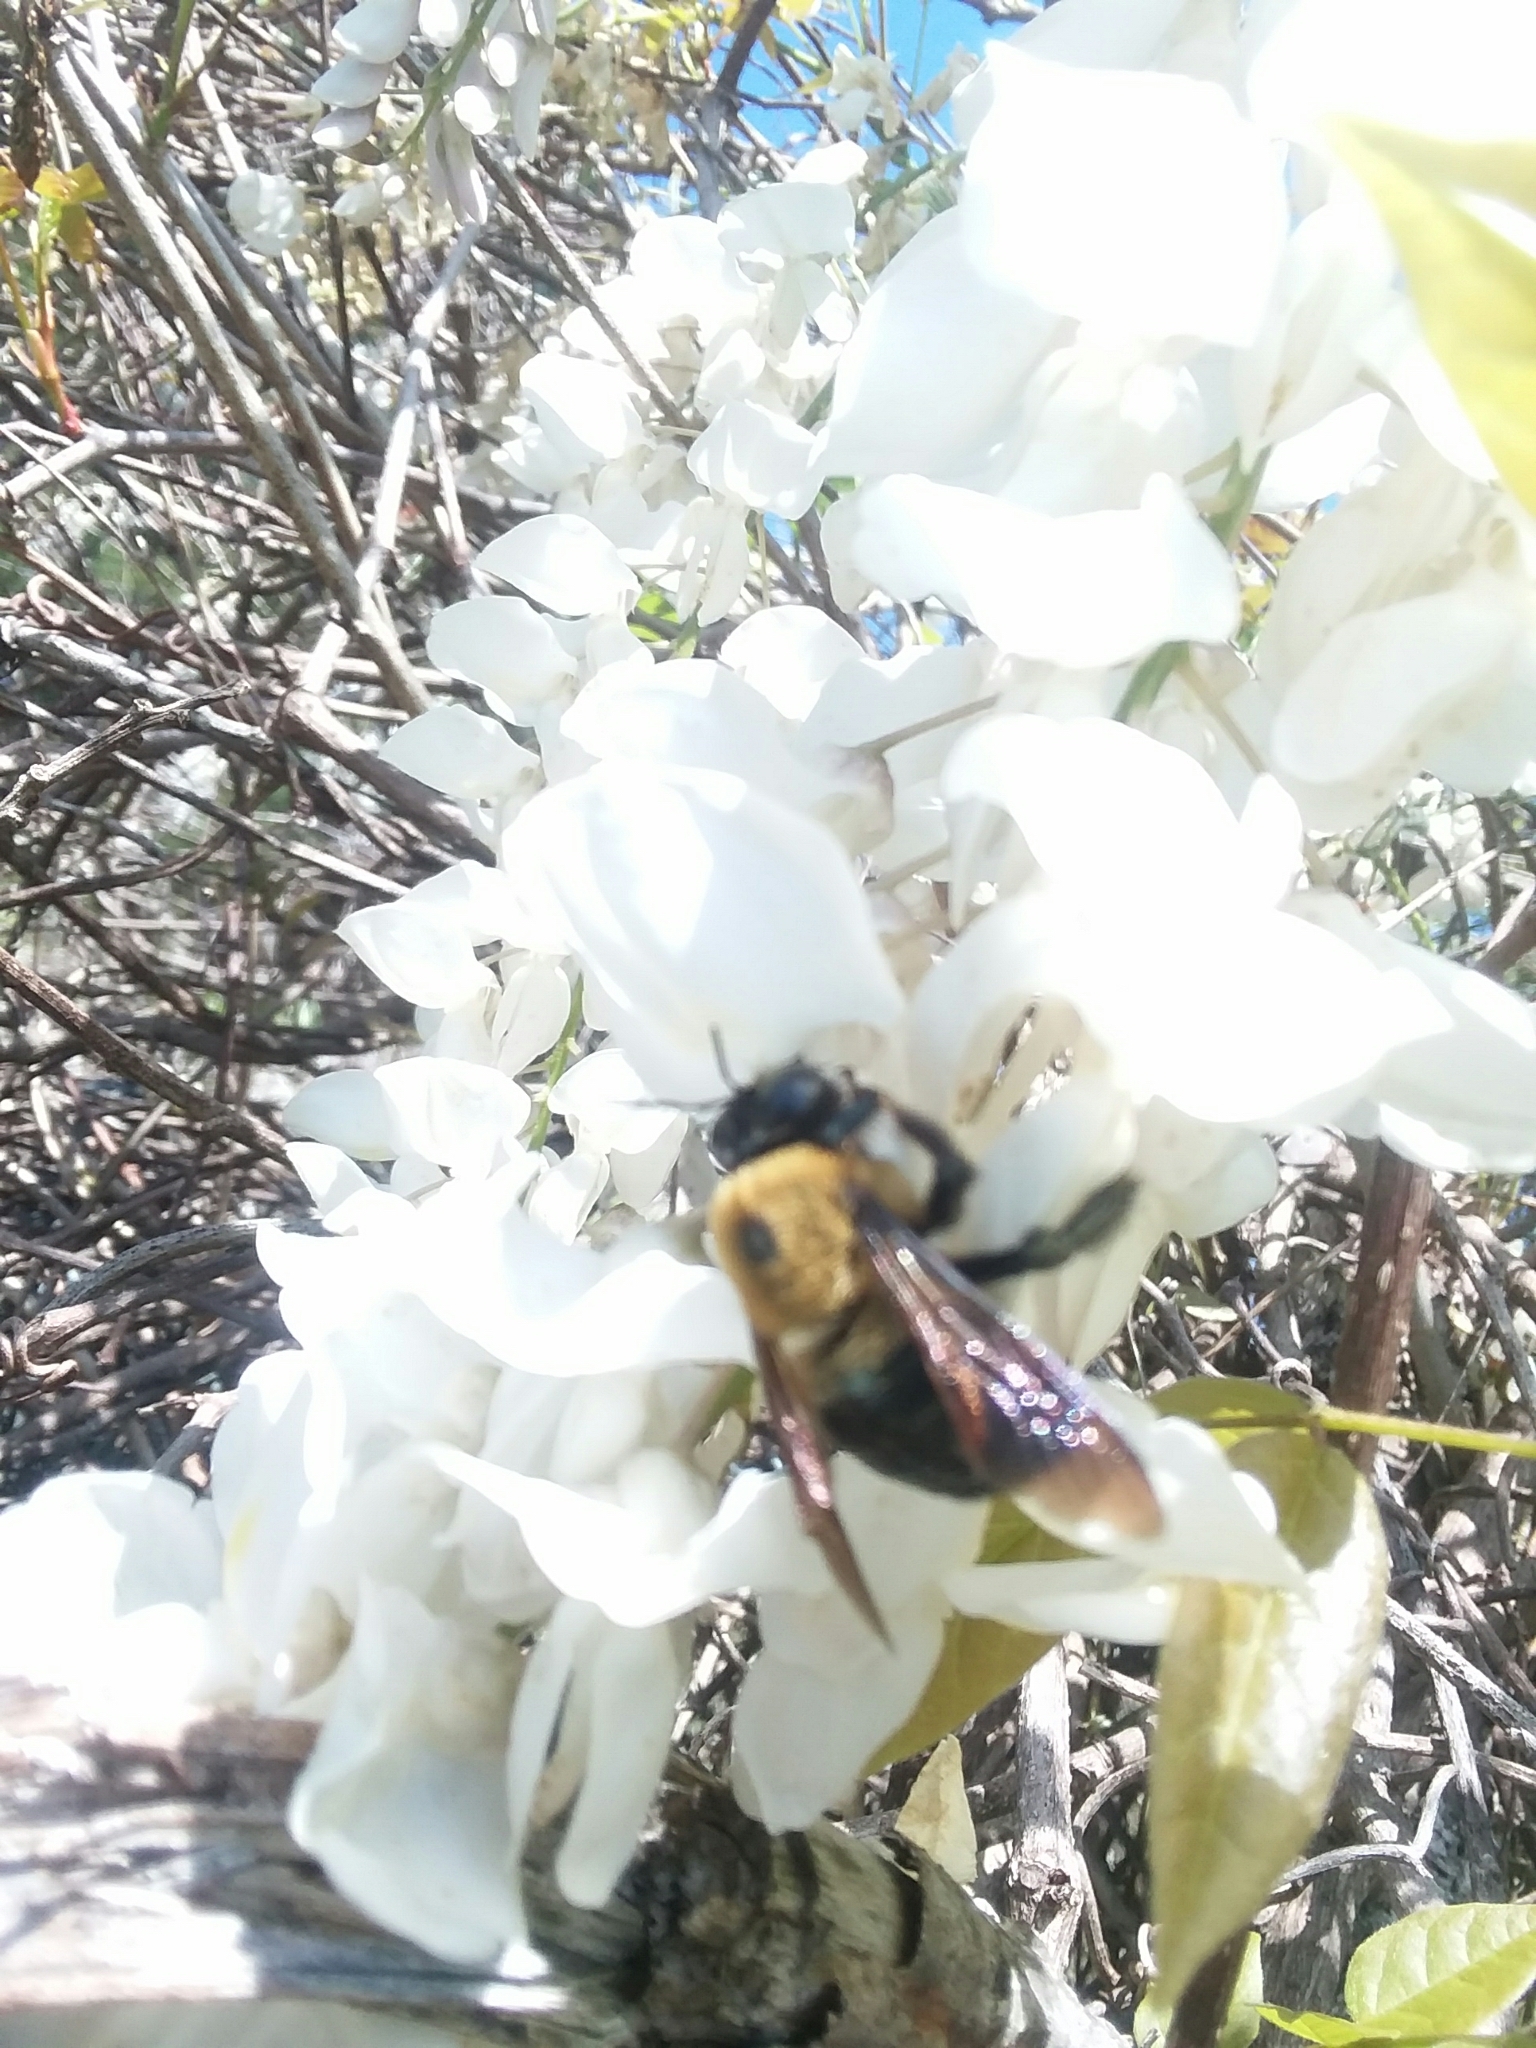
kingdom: Animalia
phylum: Arthropoda
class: Insecta
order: Hymenoptera
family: Apidae
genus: Xylocopa
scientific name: Xylocopa virginica
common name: Carpenter bee
